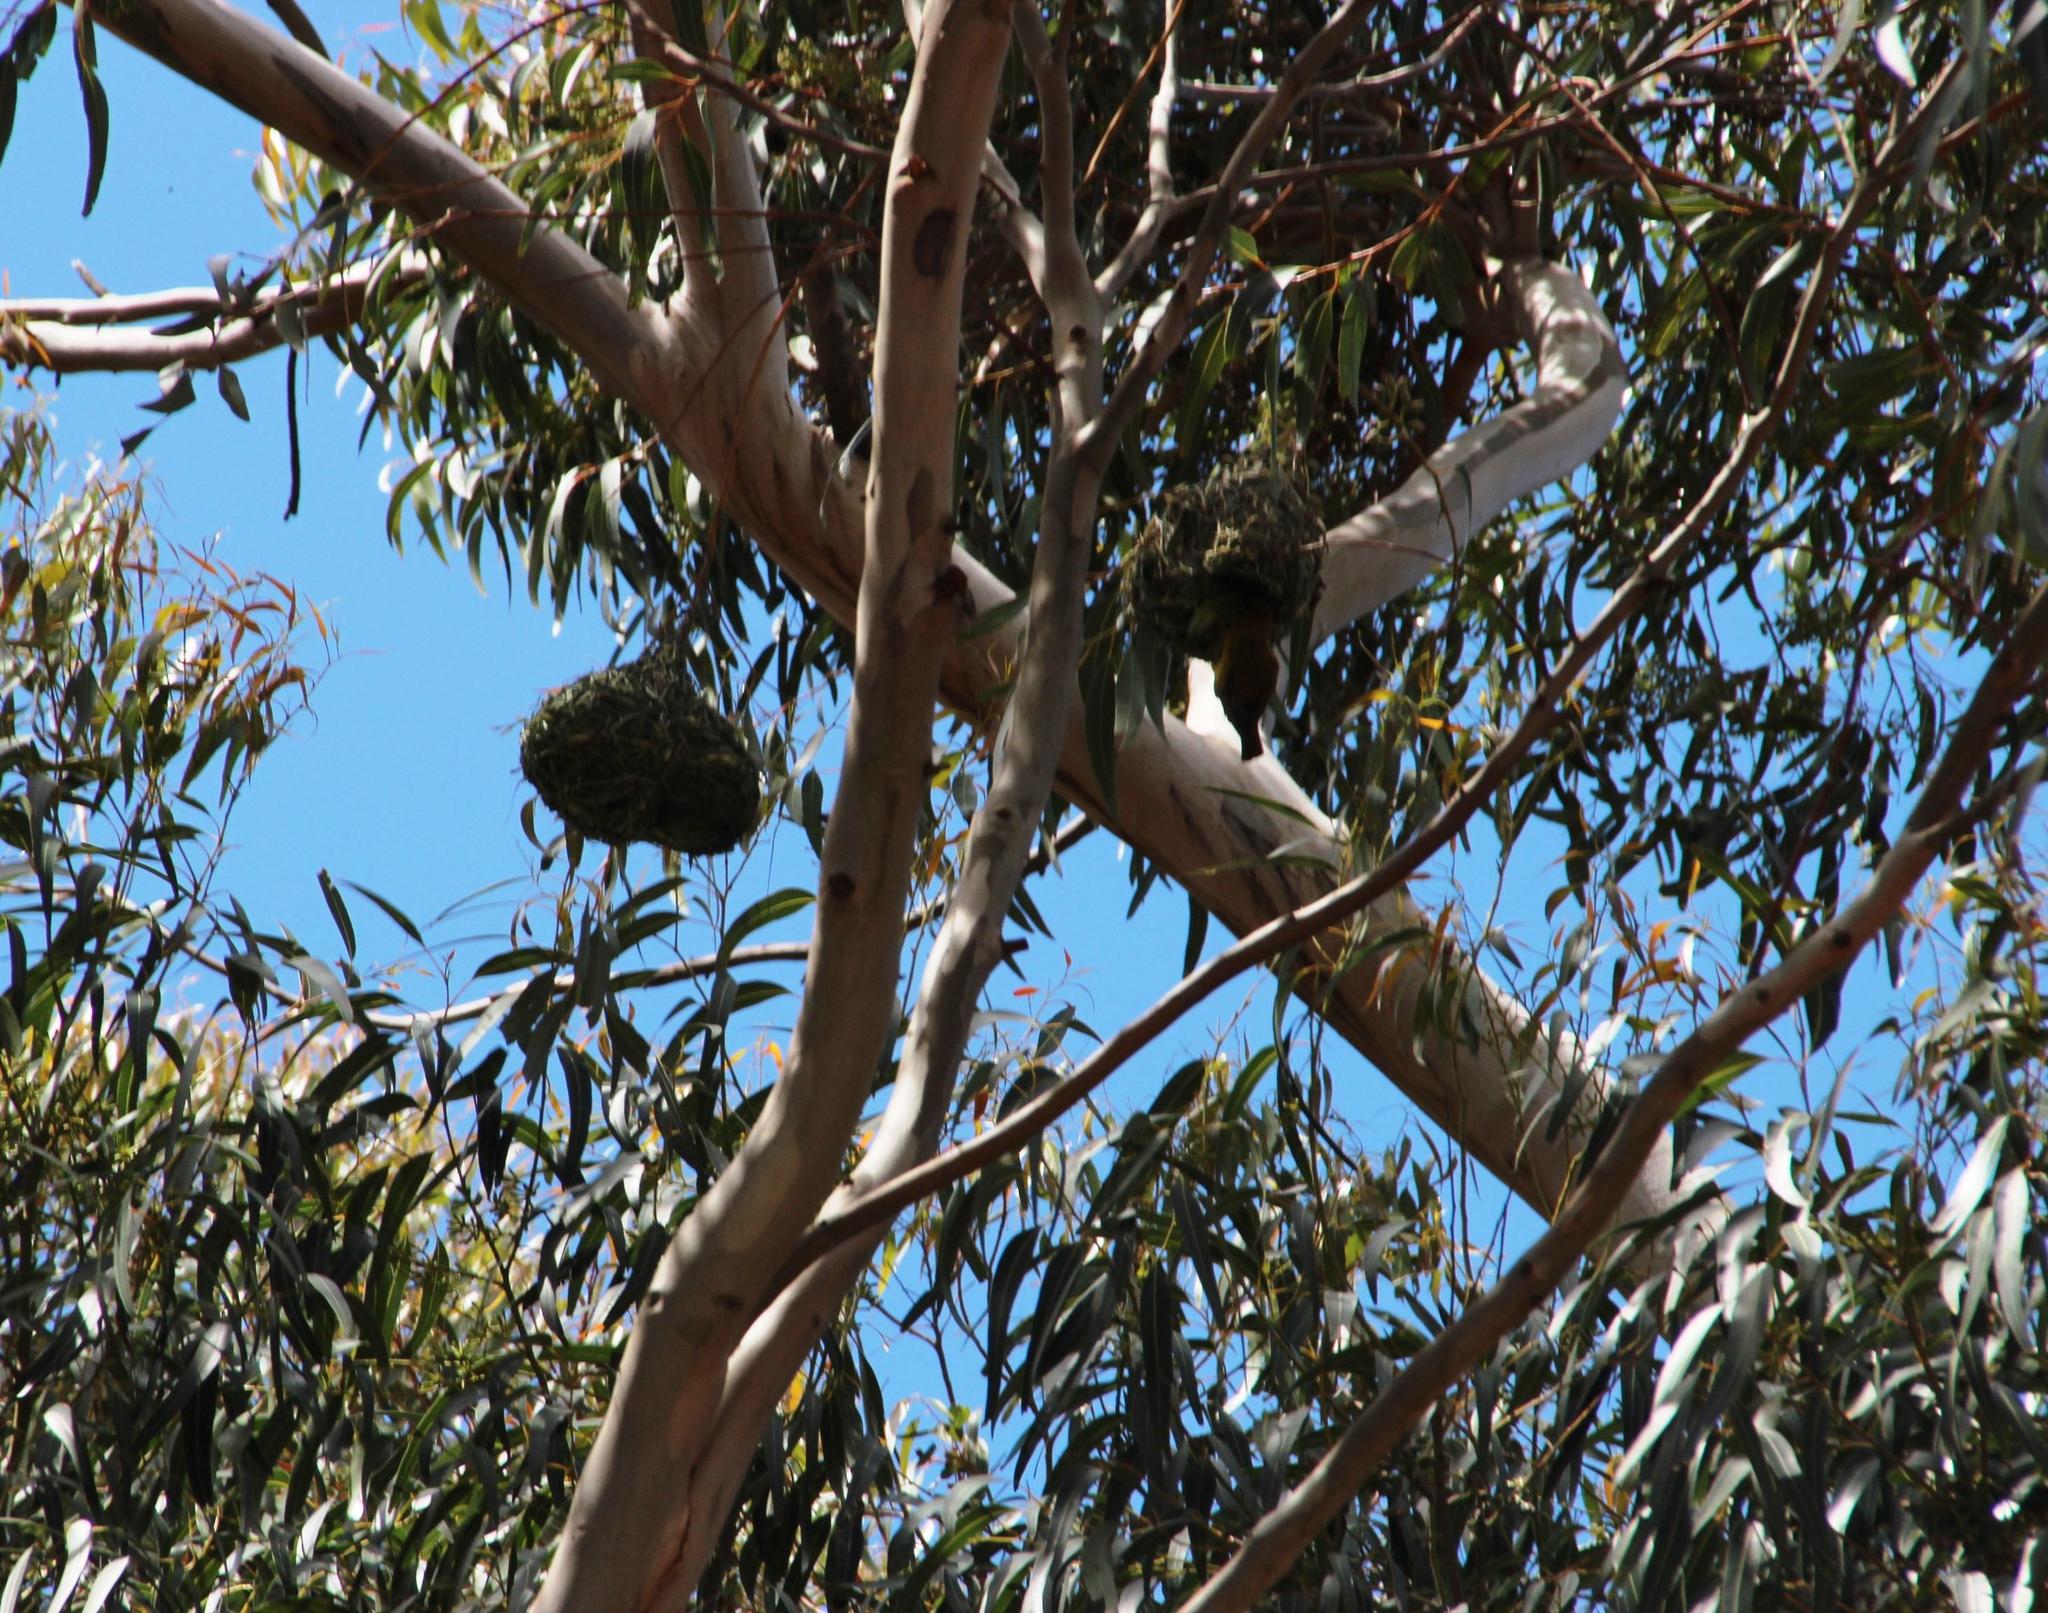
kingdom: Animalia
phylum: Chordata
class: Aves
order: Passeriformes
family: Ploceidae
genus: Ploceus
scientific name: Ploceus capensis
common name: Cape weaver
